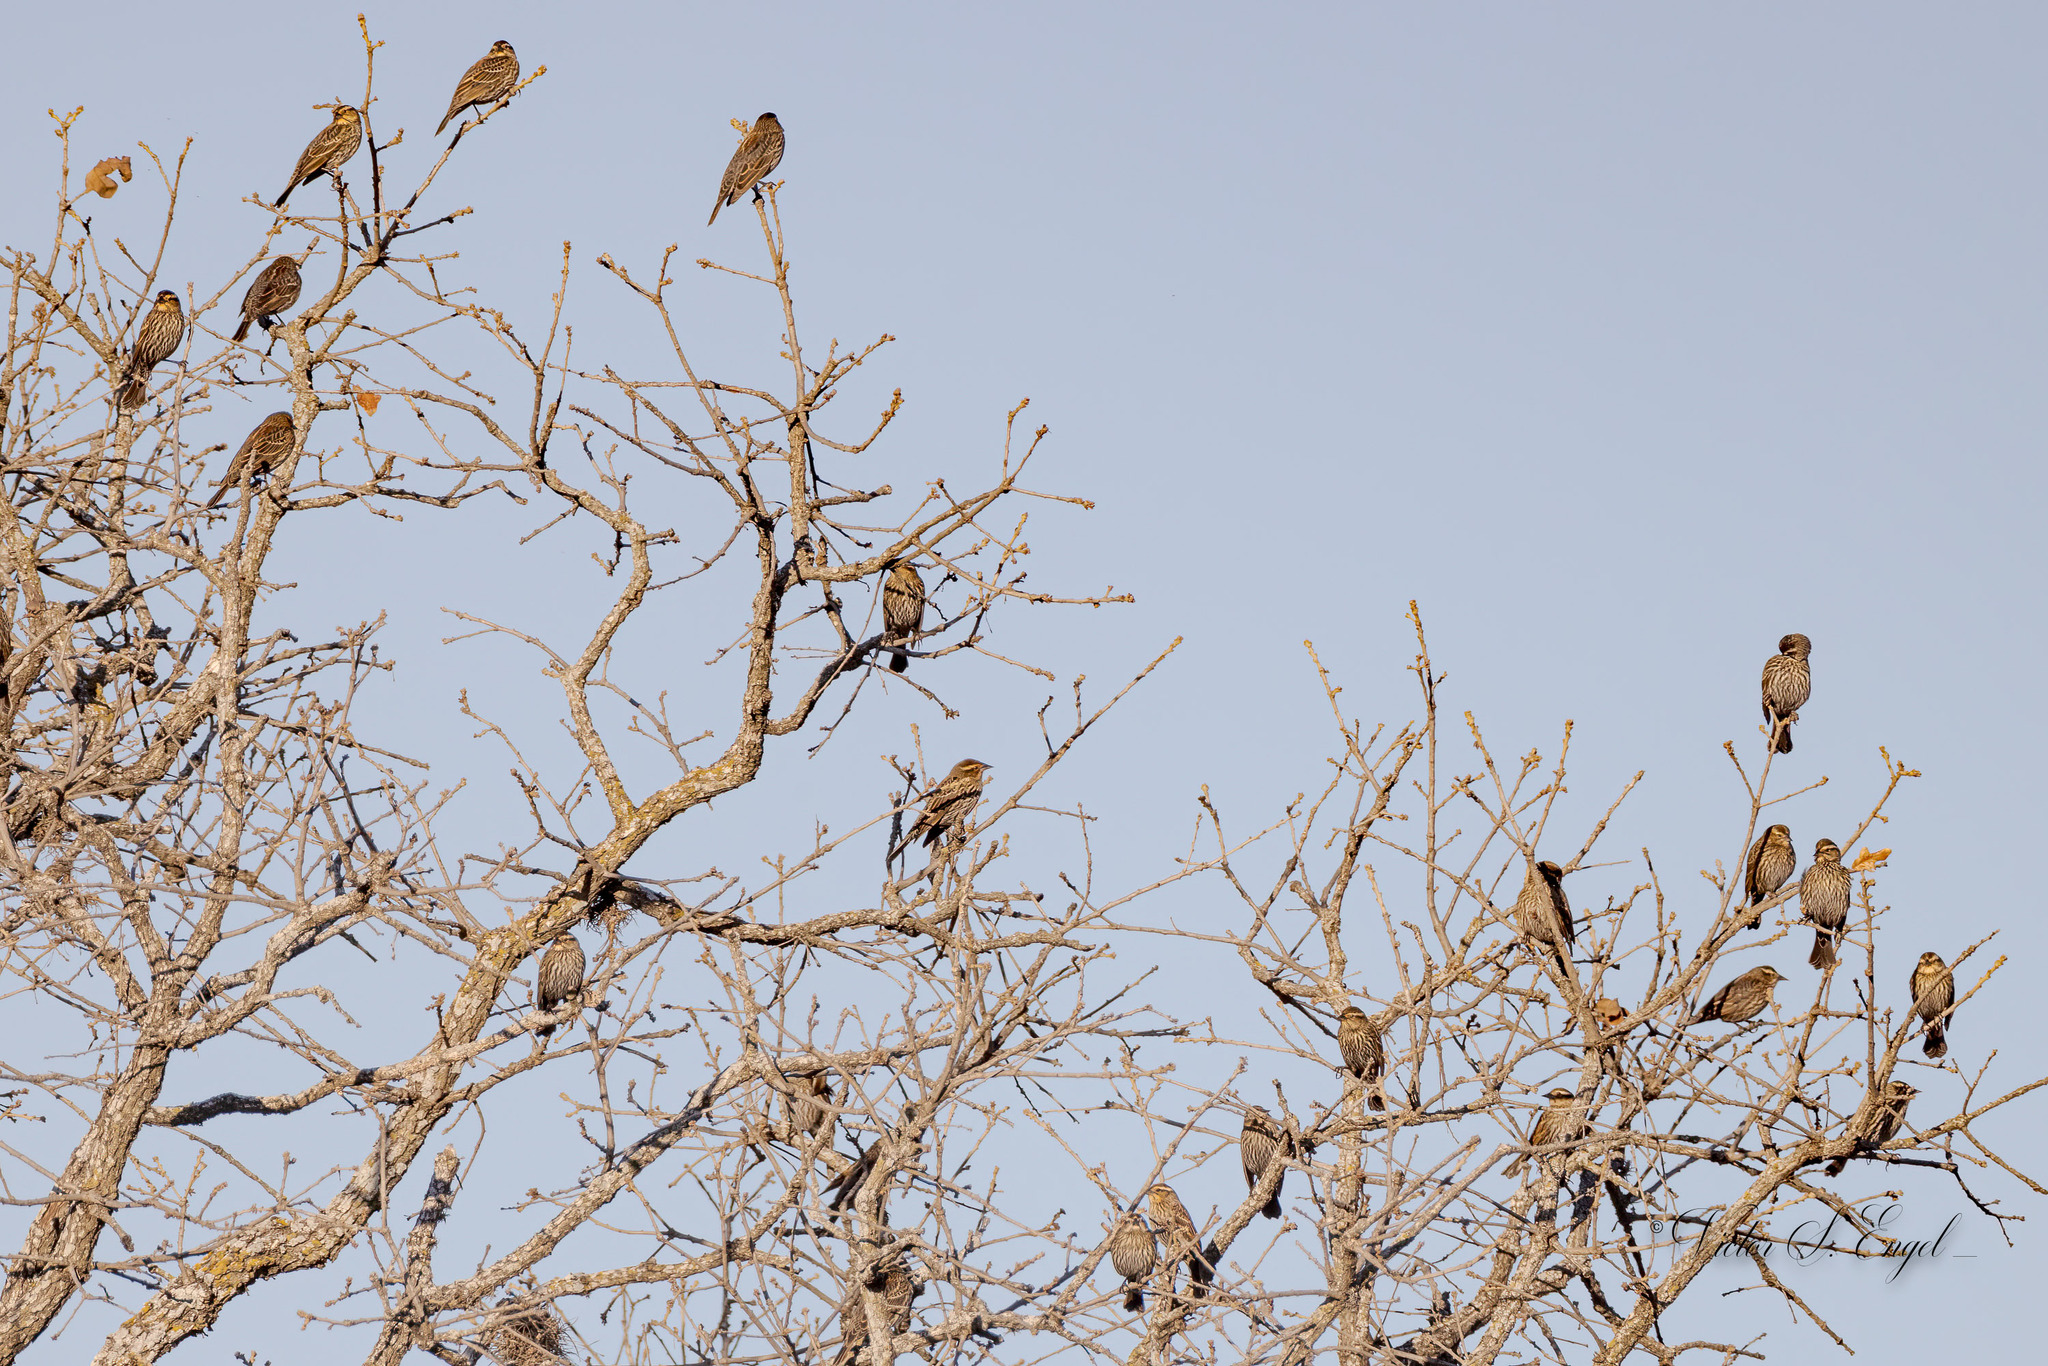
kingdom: Animalia
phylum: Chordata
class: Aves
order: Passeriformes
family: Icteridae
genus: Agelaius
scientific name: Agelaius phoeniceus
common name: Red-winged blackbird
